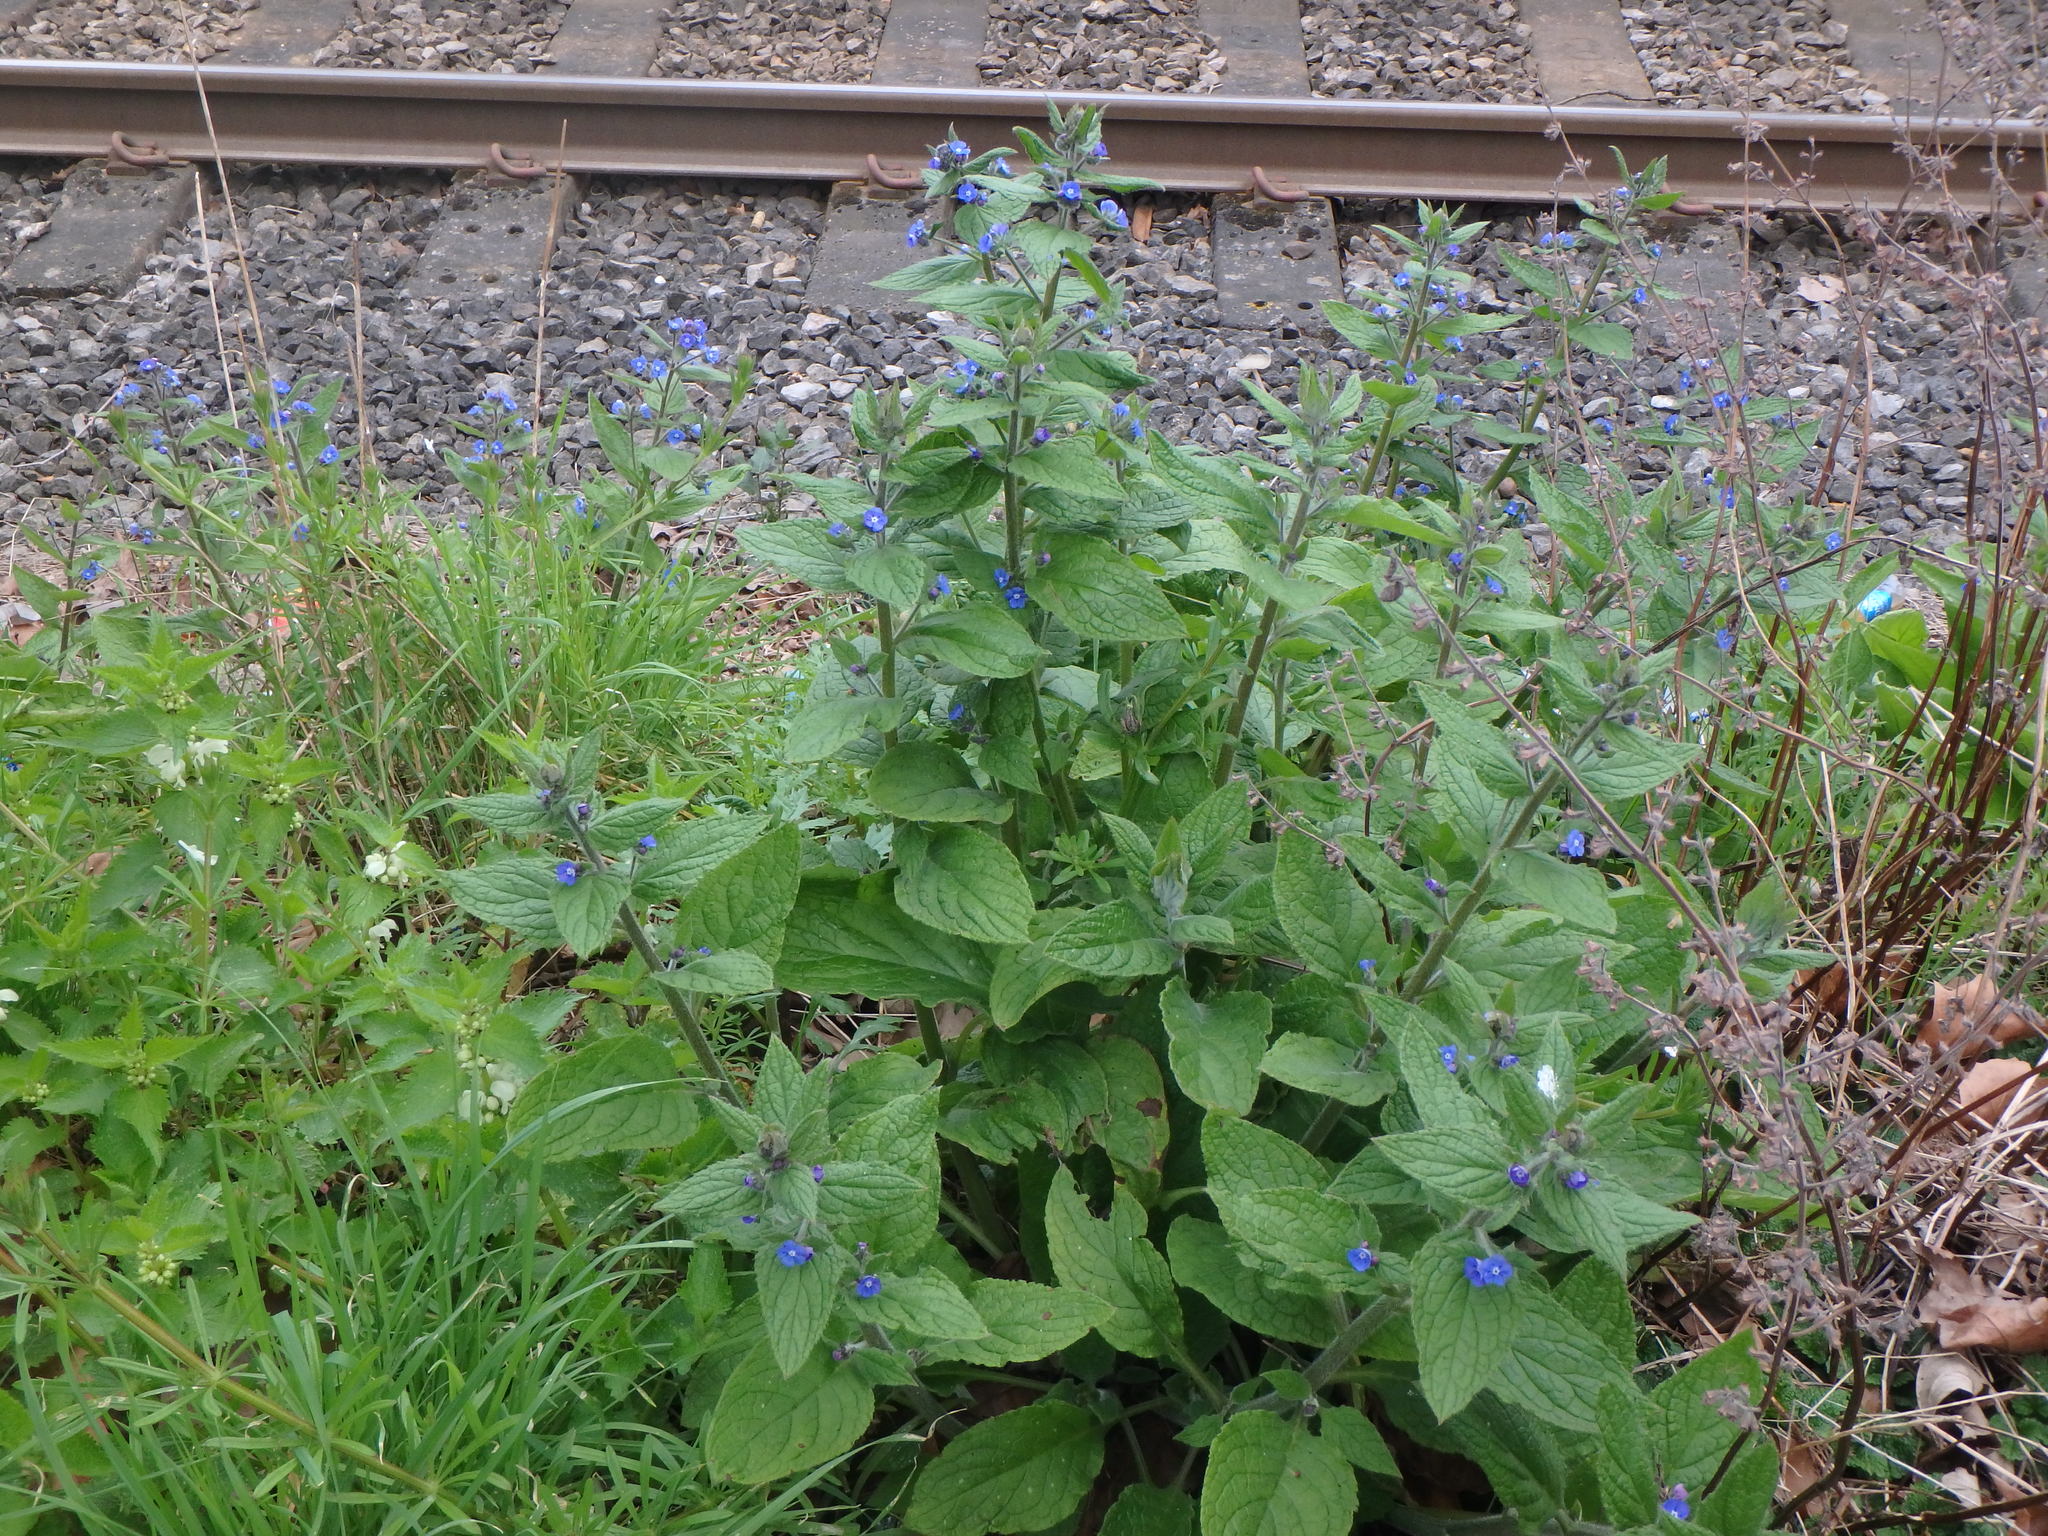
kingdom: Plantae
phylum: Tracheophyta
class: Magnoliopsida
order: Boraginales
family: Boraginaceae
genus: Pentaglottis
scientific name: Pentaglottis sempervirens
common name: Green alkanet
